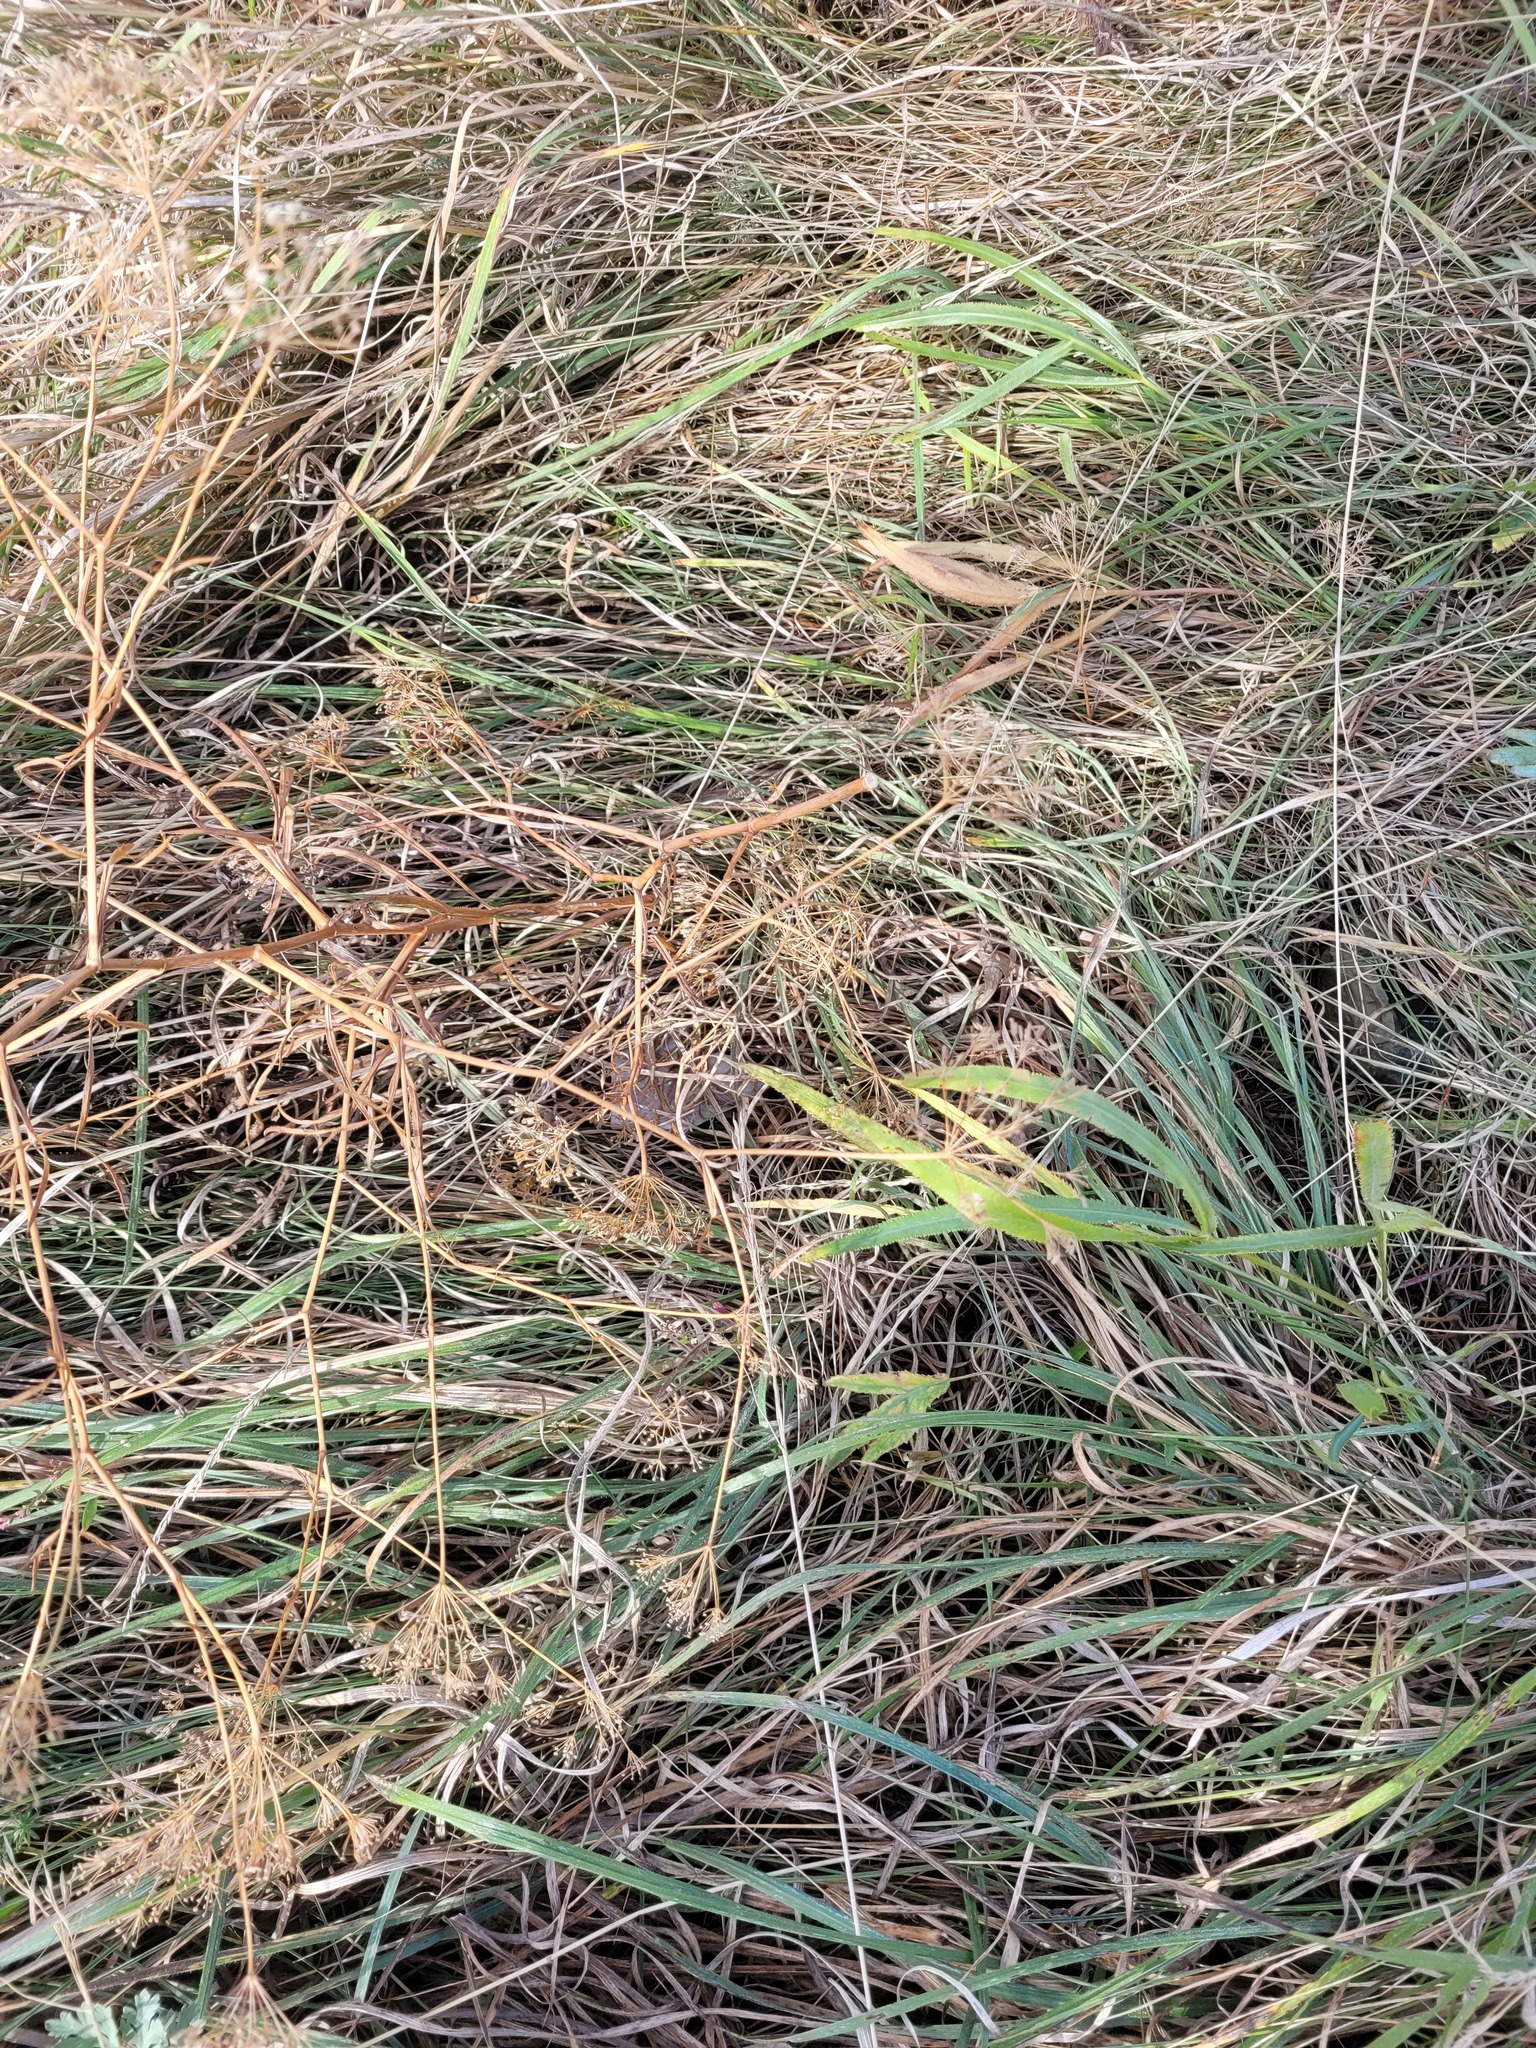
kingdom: Plantae
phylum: Tracheophyta
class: Magnoliopsida
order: Apiales
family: Apiaceae
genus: Falcaria
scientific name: Falcaria vulgaris
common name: Longleaf
